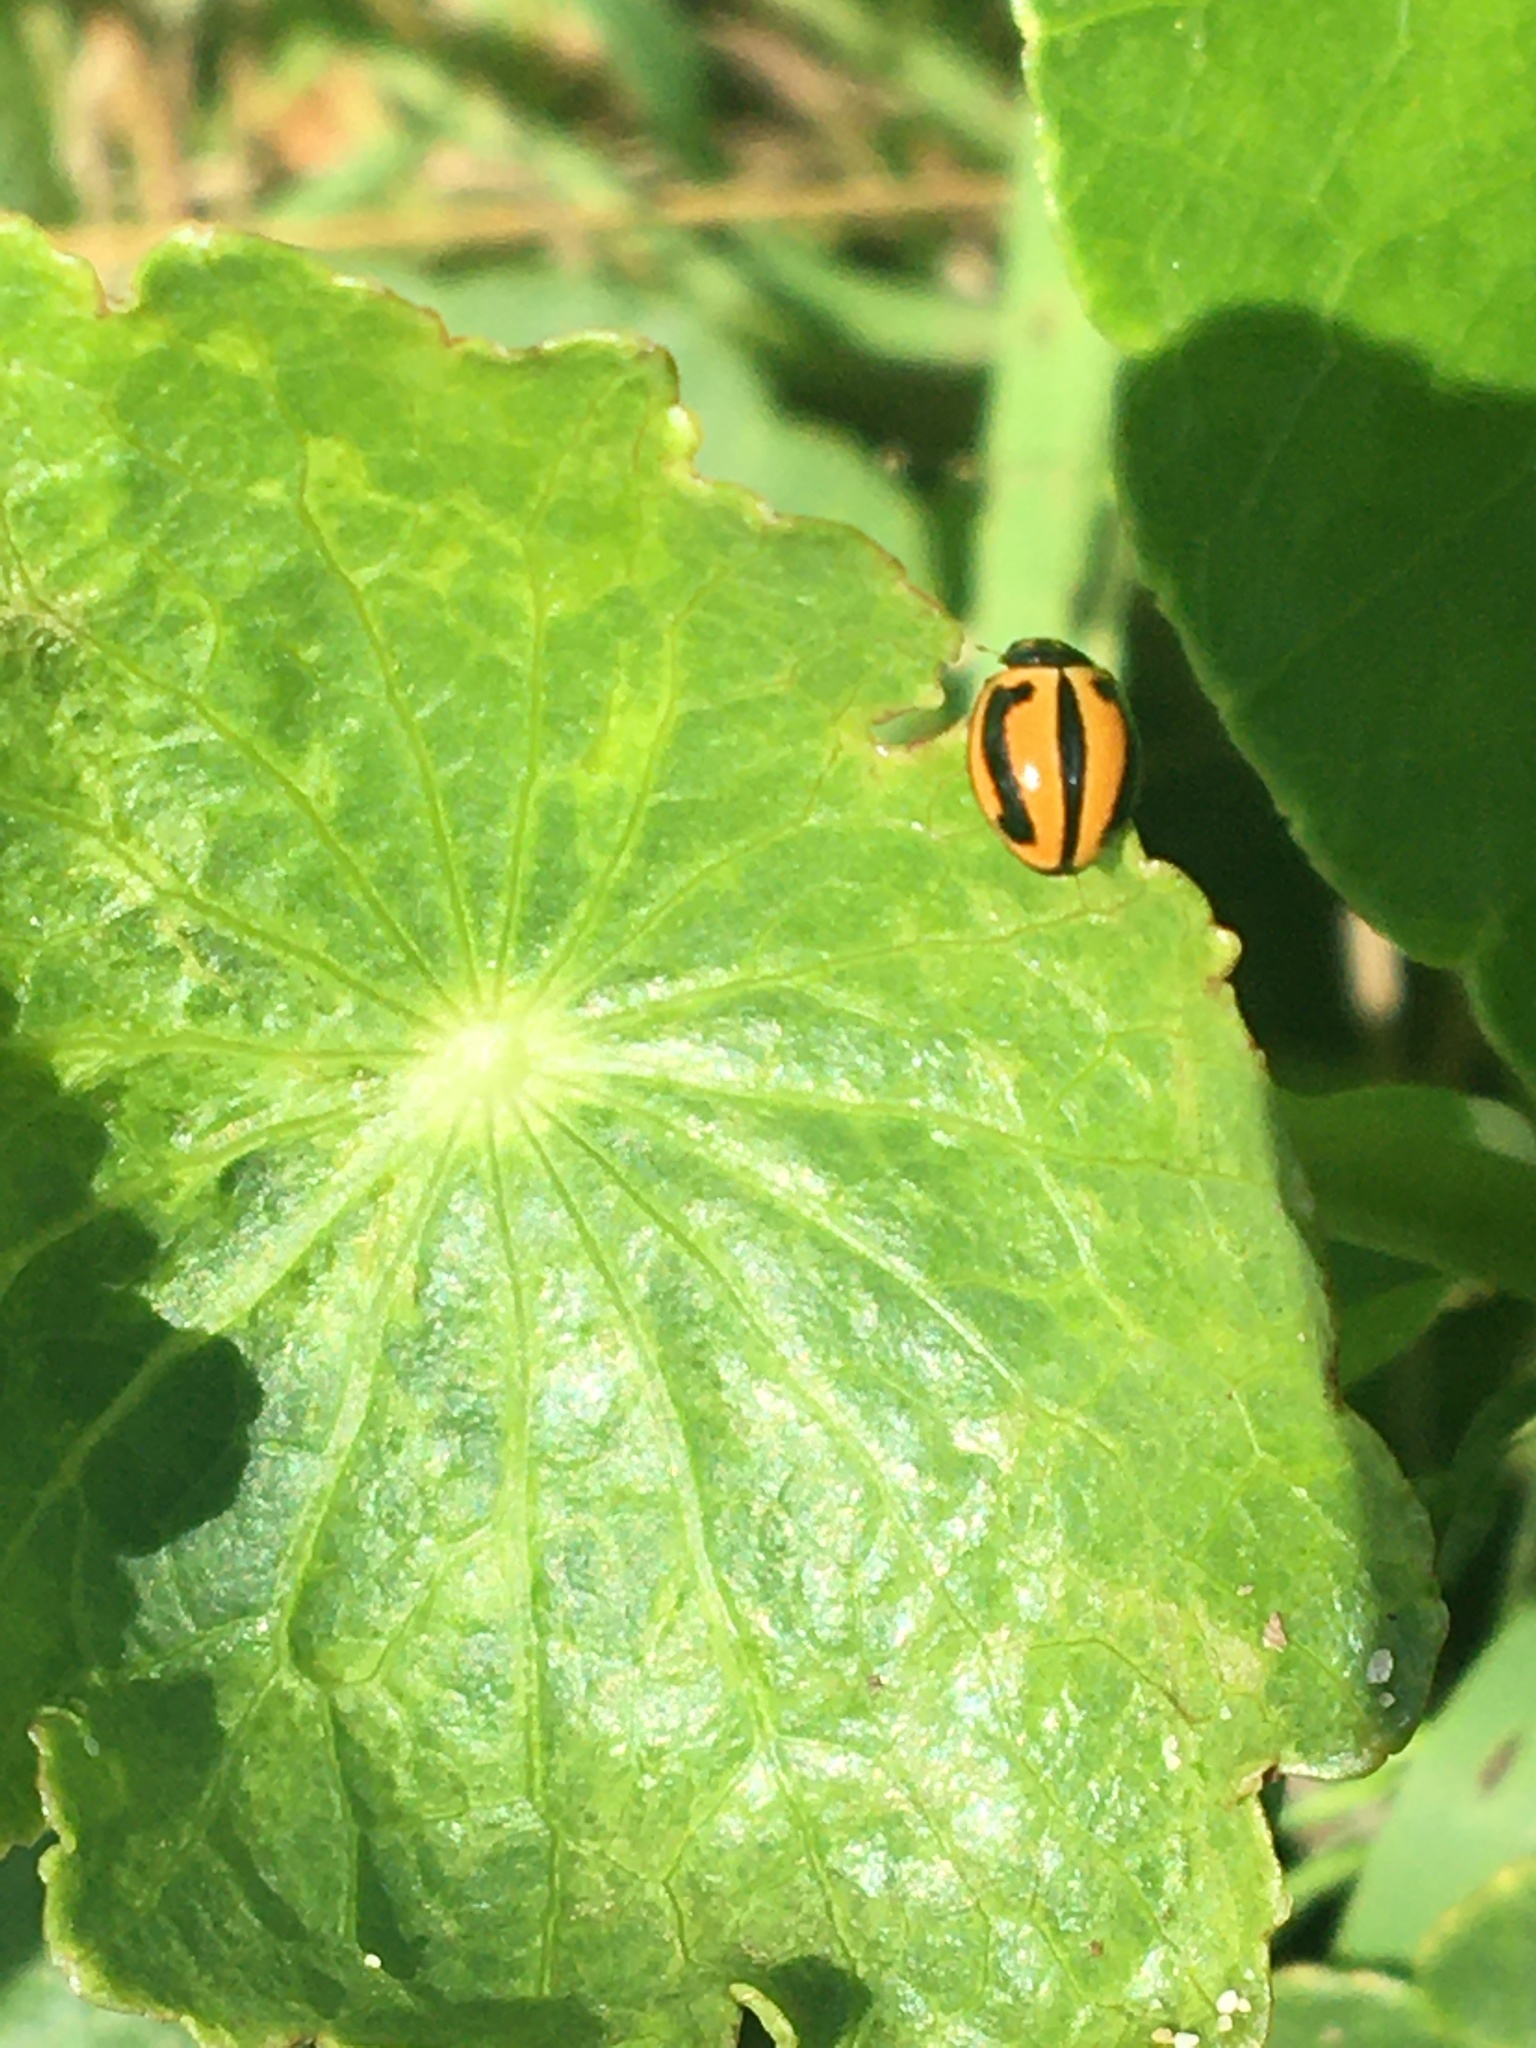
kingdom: Animalia
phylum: Arthropoda
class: Insecta
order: Coleoptera
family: Coccinellidae
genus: Micraspis
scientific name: Micraspis frenata
